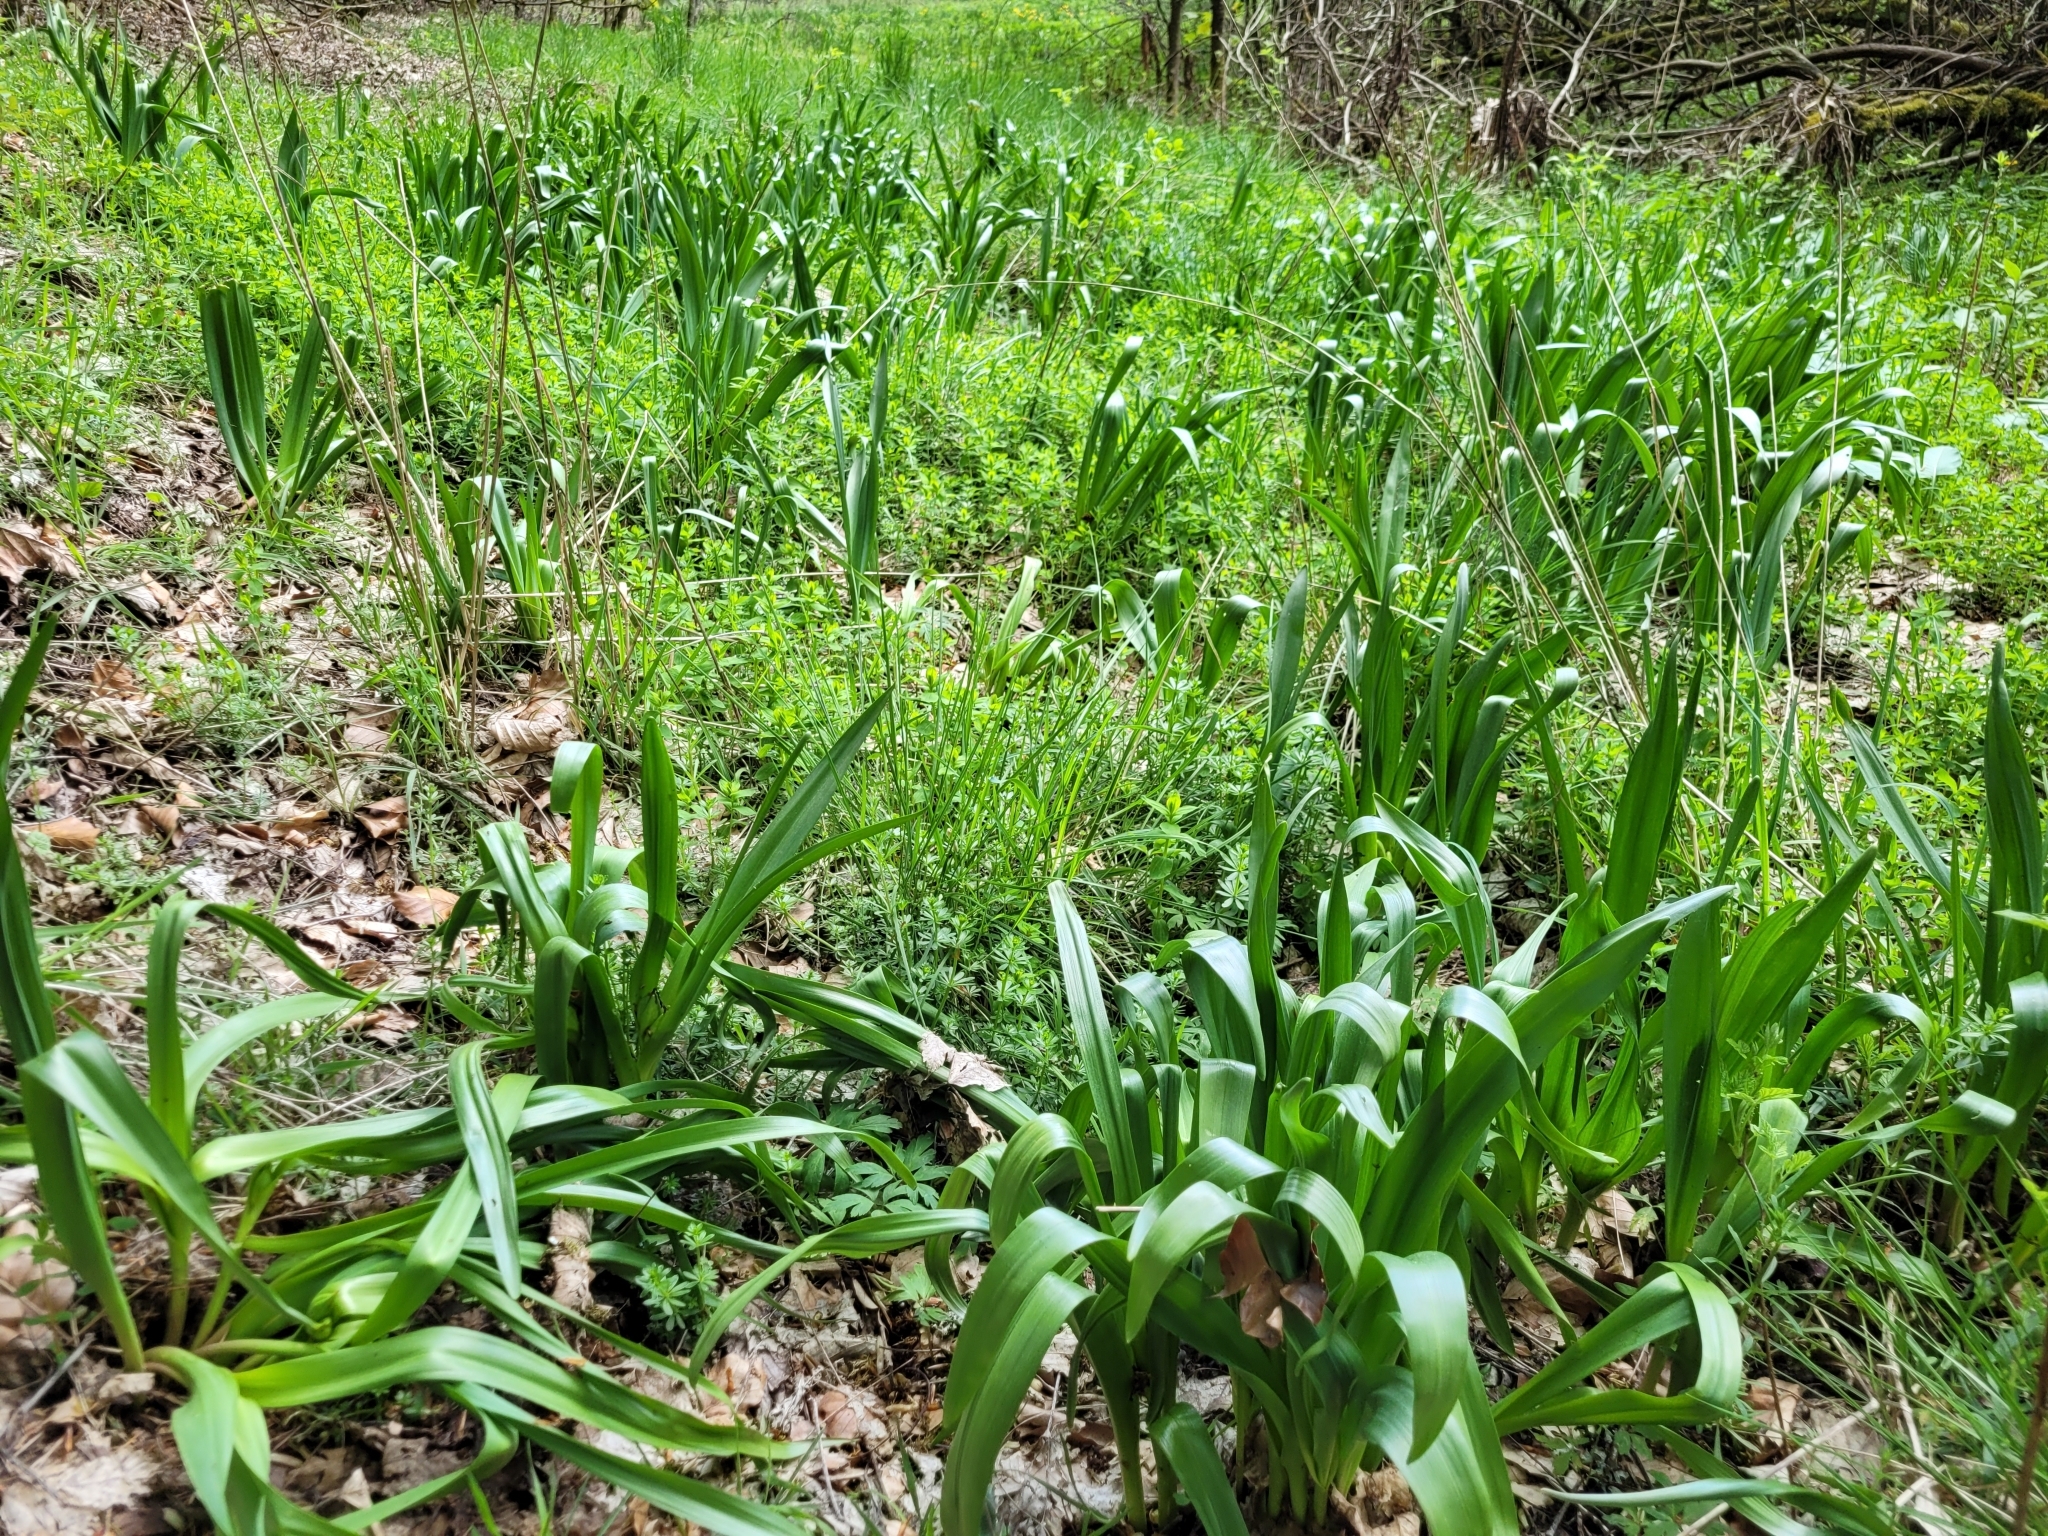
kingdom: Plantae
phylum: Tracheophyta
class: Liliopsida
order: Liliales
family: Colchicaceae
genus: Colchicum
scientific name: Colchicum autumnale
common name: Autumn crocus
